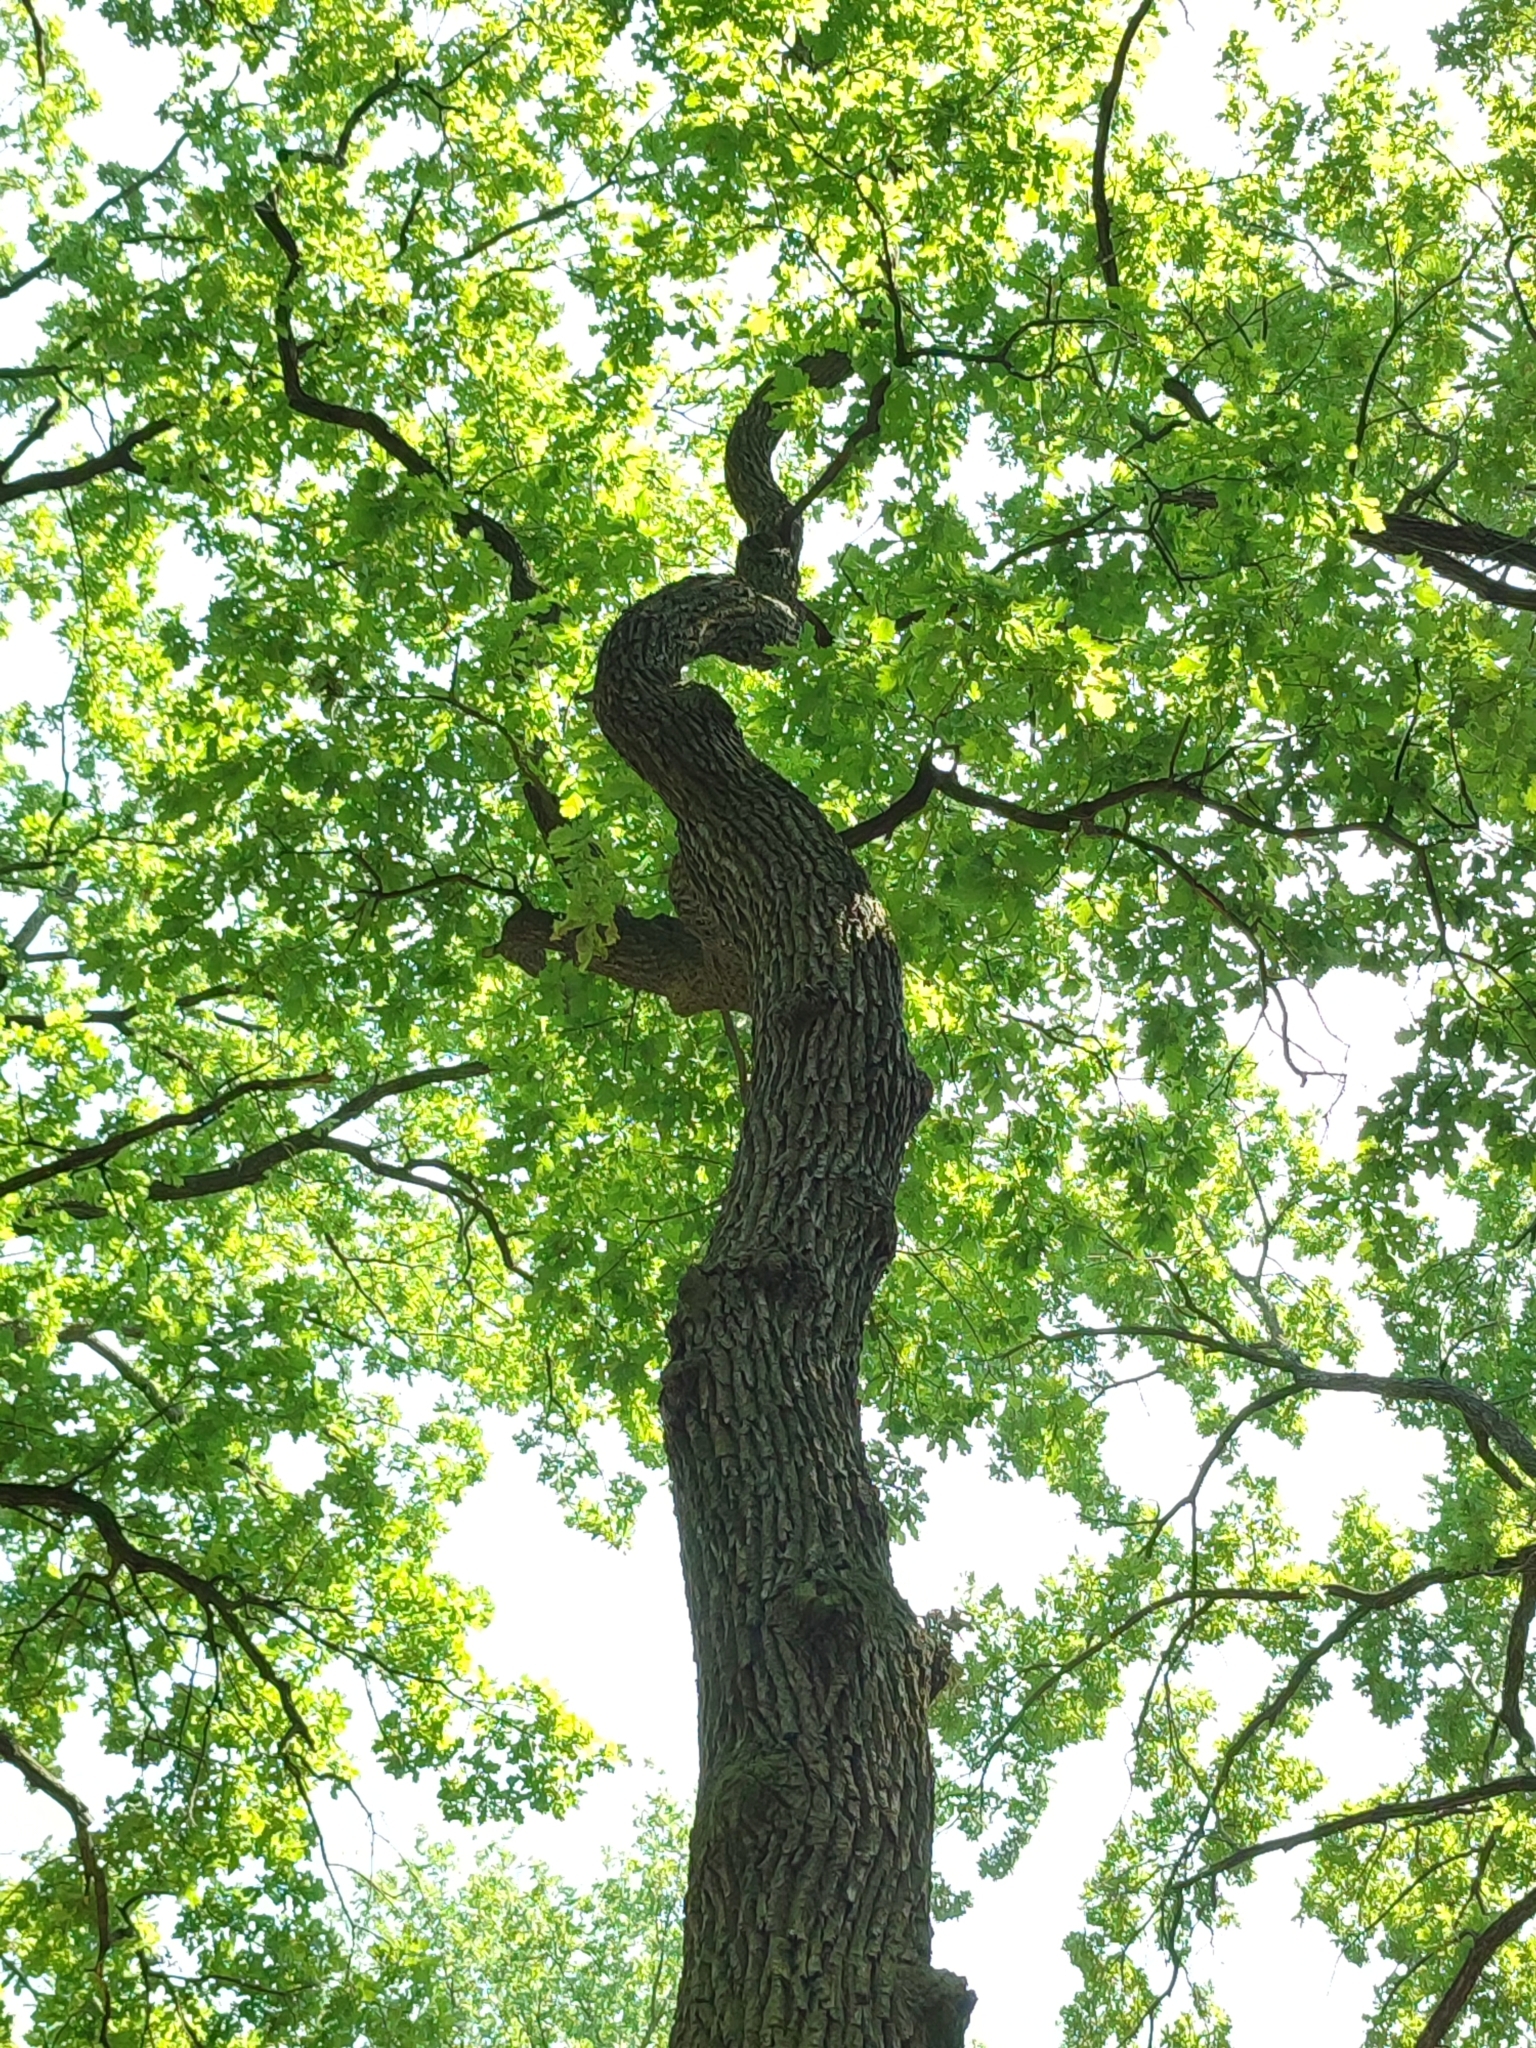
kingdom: Plantae
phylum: Tracheophyta
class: Magnoliopsida
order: Fagales
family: Fagaceae
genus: Quercus
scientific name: Quercus robur
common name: Pedunculate oak
